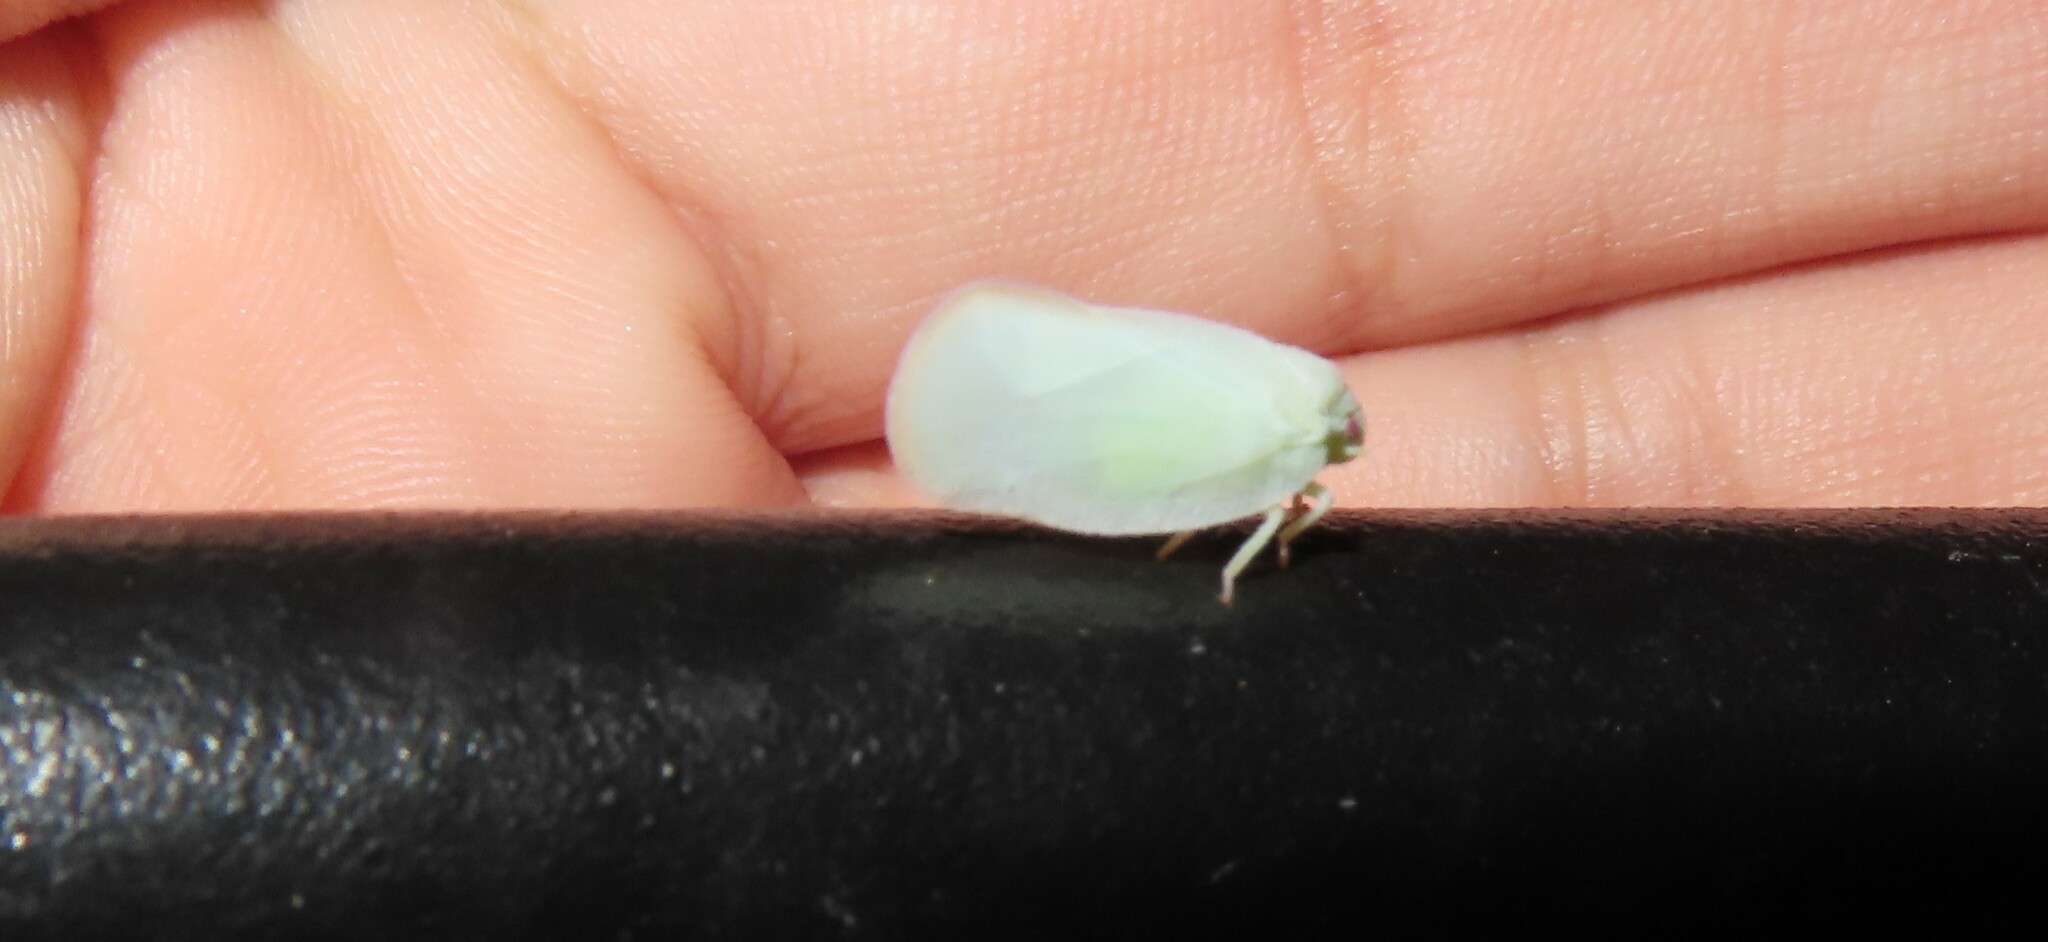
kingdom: Animalia
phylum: Arthropoda
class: Insecta
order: Hemiptera
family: Flatidae
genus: Ormenoides
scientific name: Ormenoides venusta
